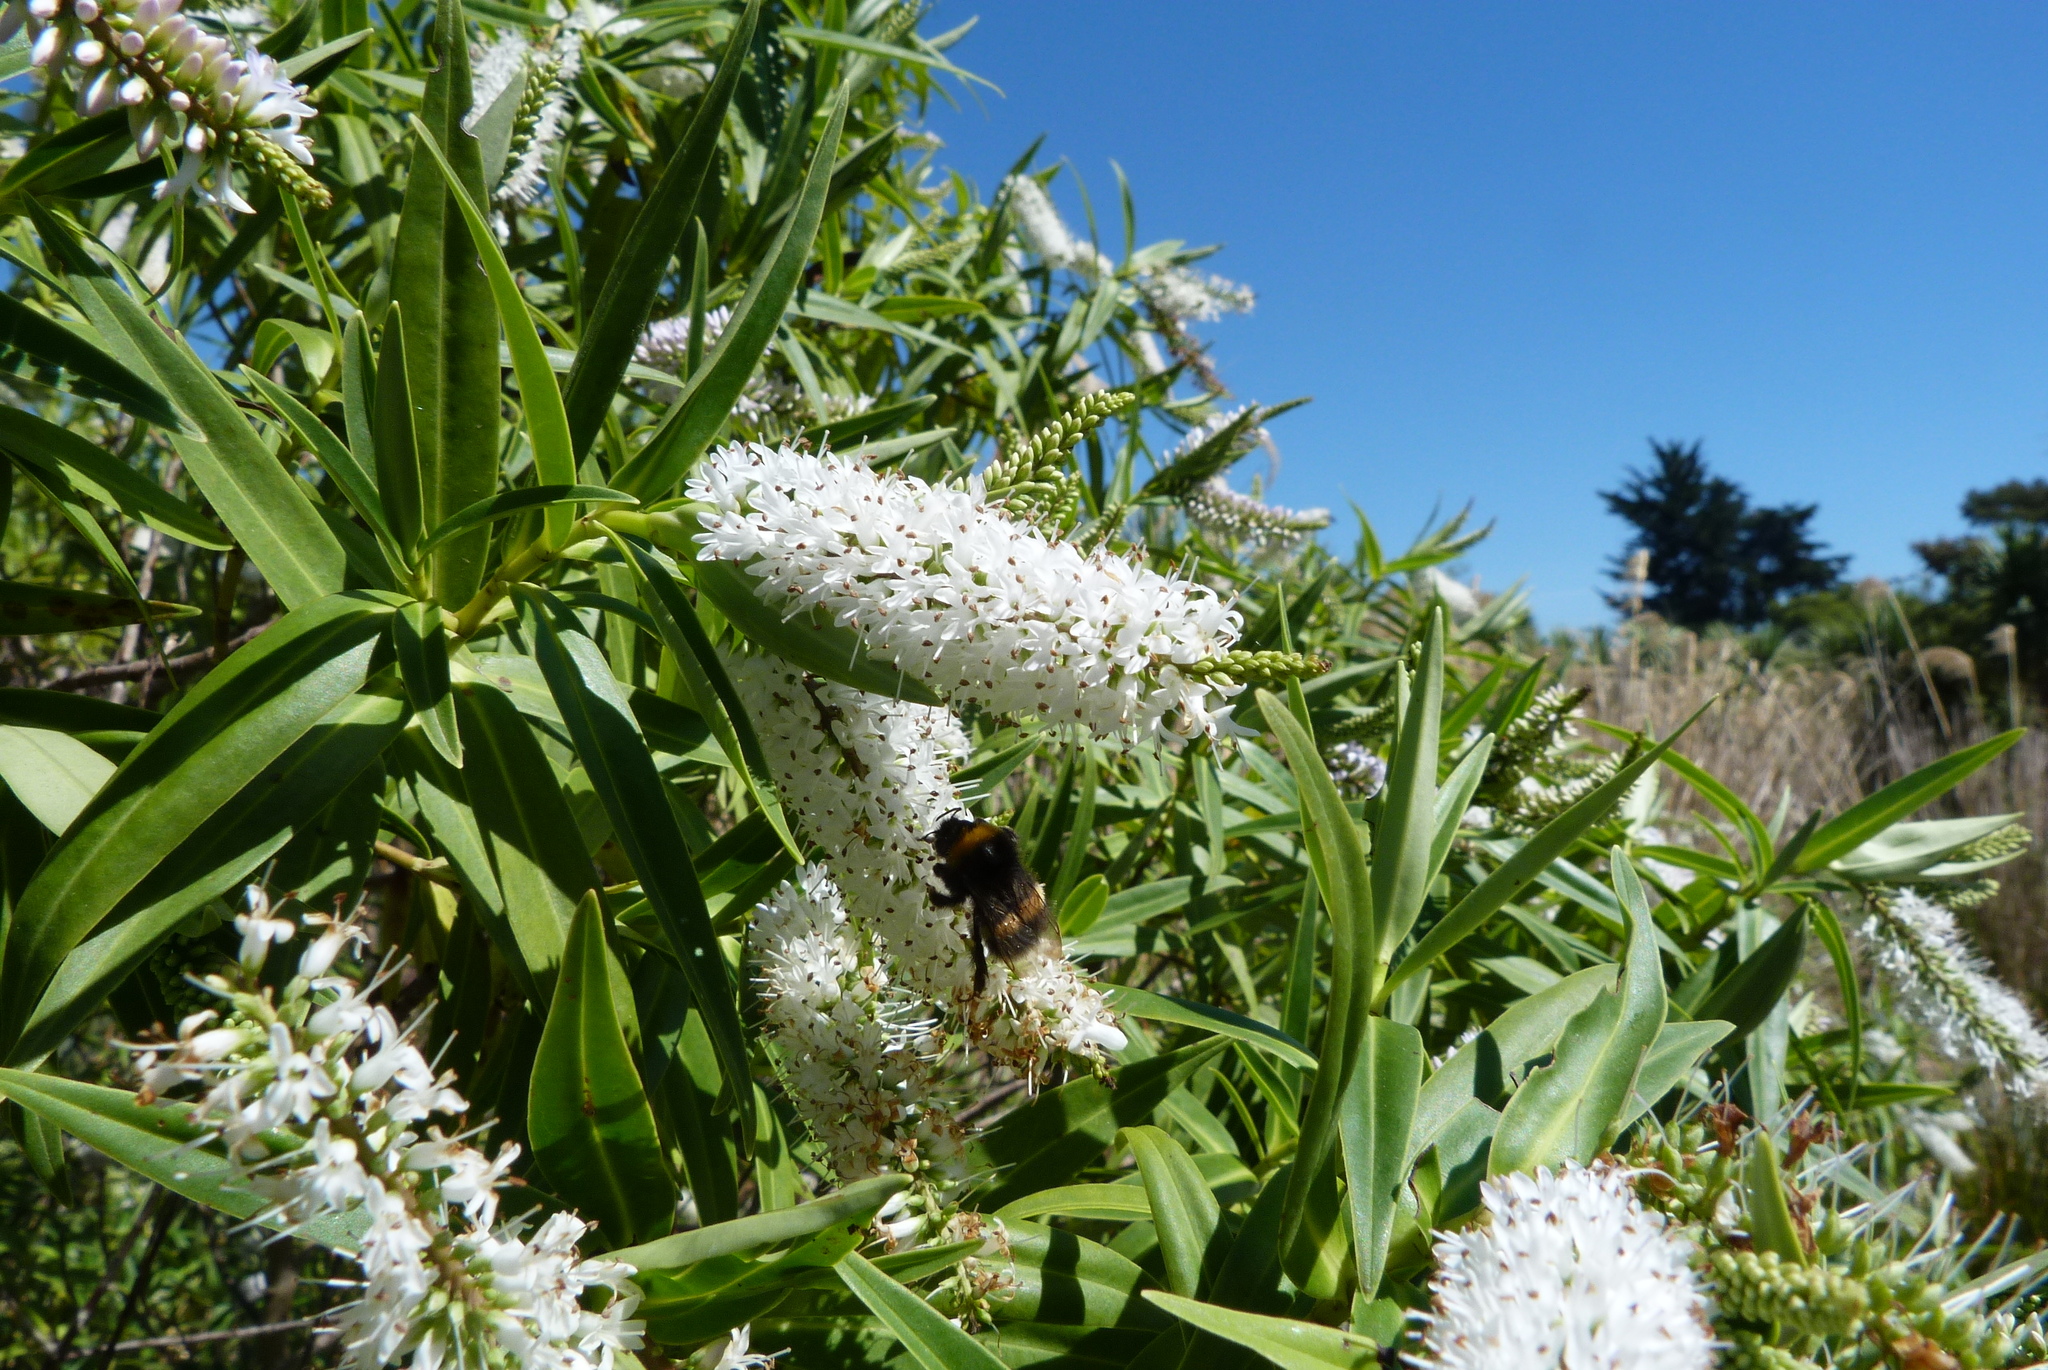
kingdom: Animalia
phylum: Arthropoda
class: Insecta
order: Hymenoptera
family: Apidae
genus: Bombus
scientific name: Bombus terrestris
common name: Buff-tailed bumblebee
